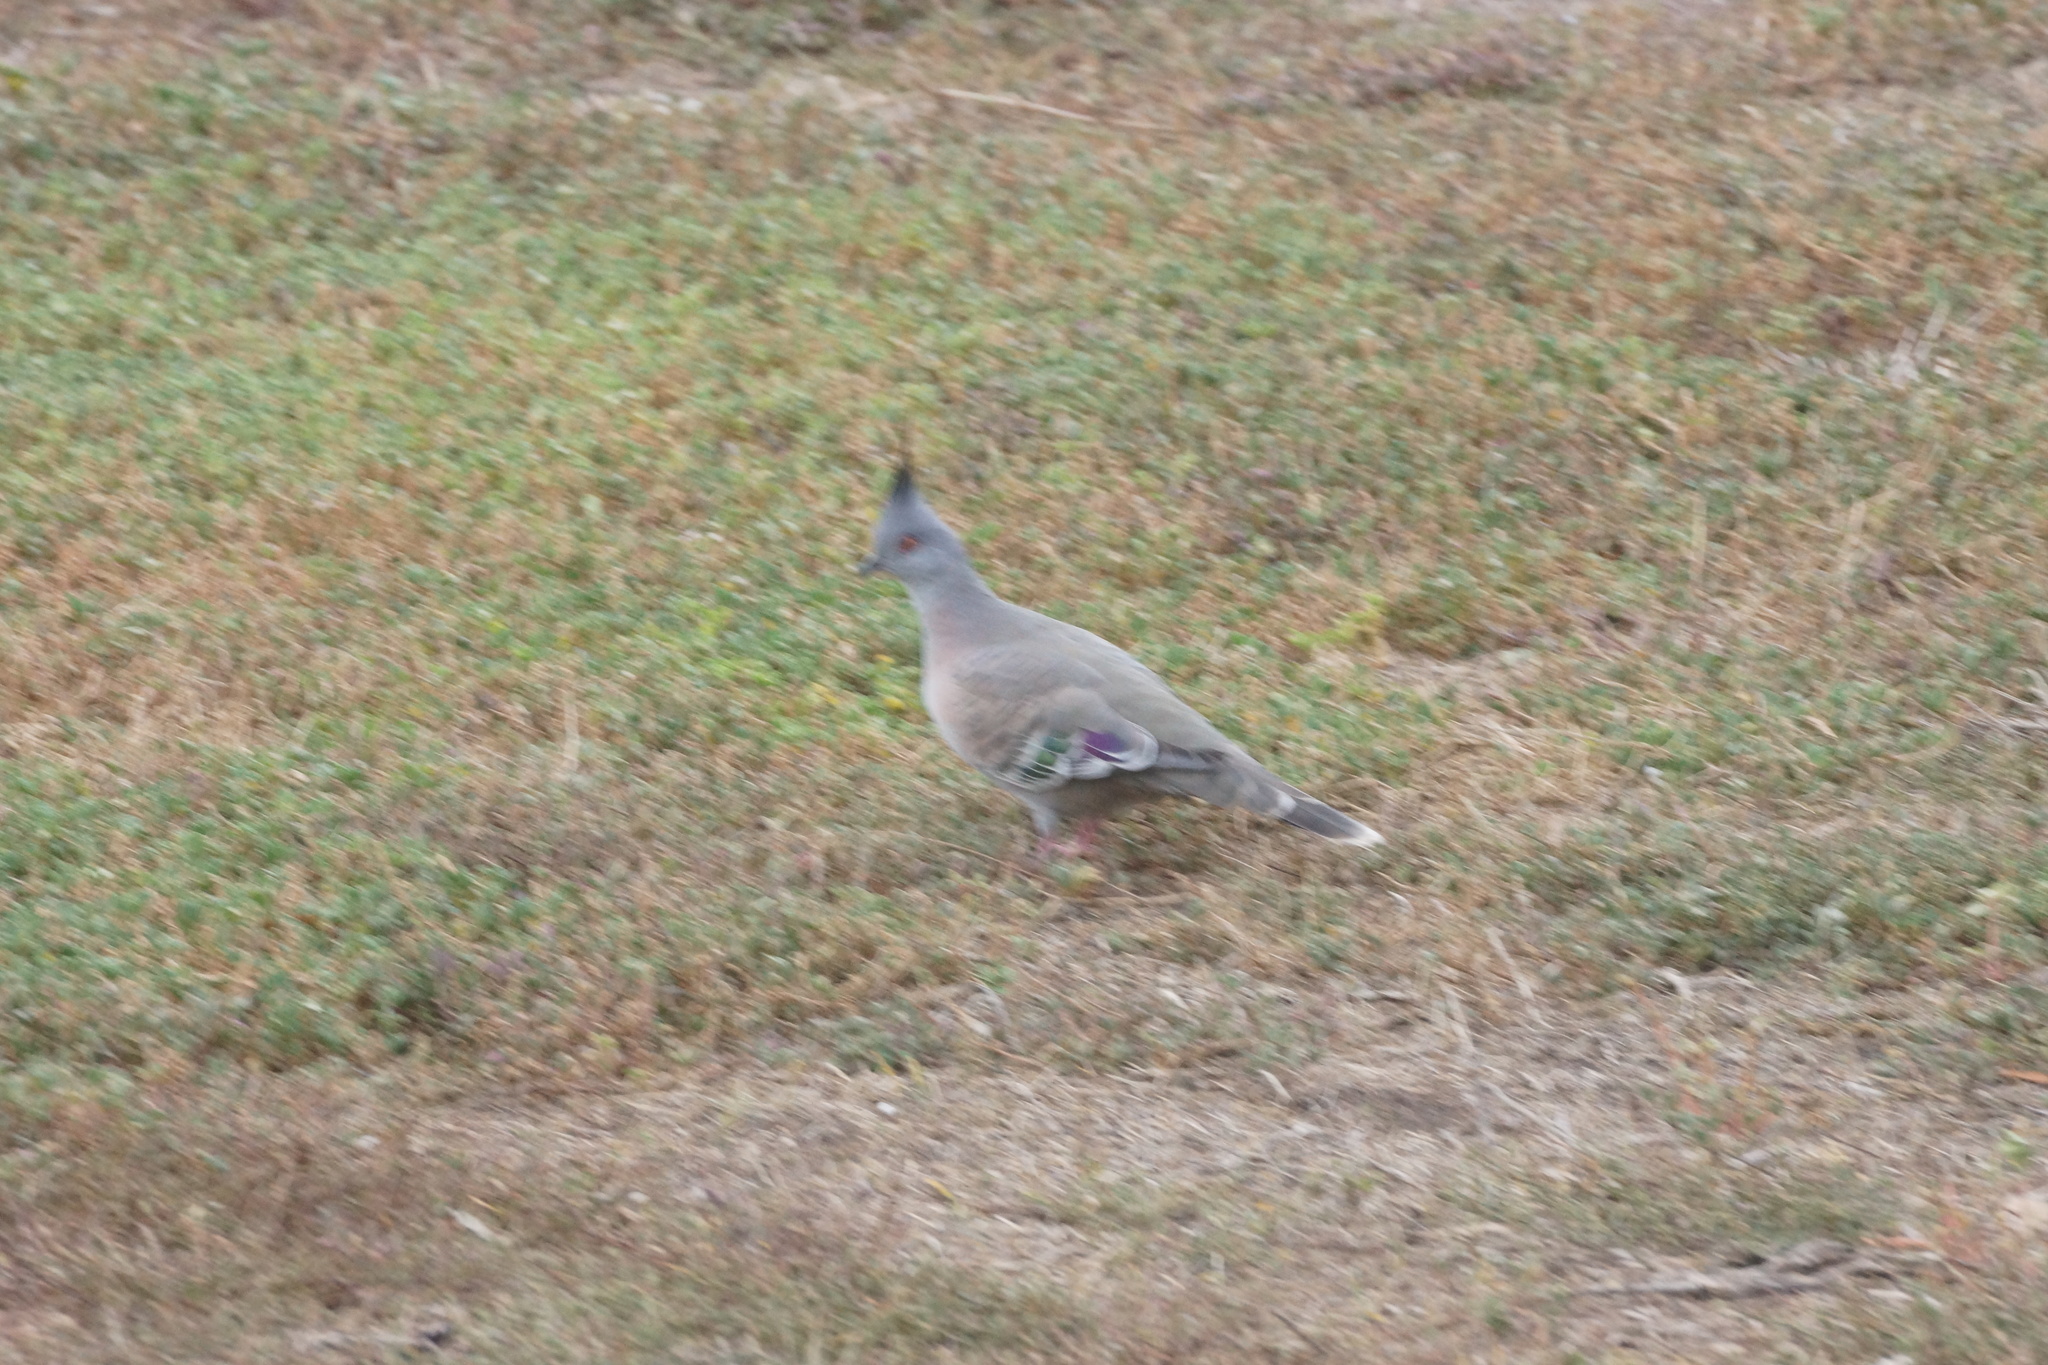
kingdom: Animalia
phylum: Chordata
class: Aves
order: Columbiformes
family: Columbidae
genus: Ocyphaps
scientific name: Ocyphaps lophotes
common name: Crested pigeon
